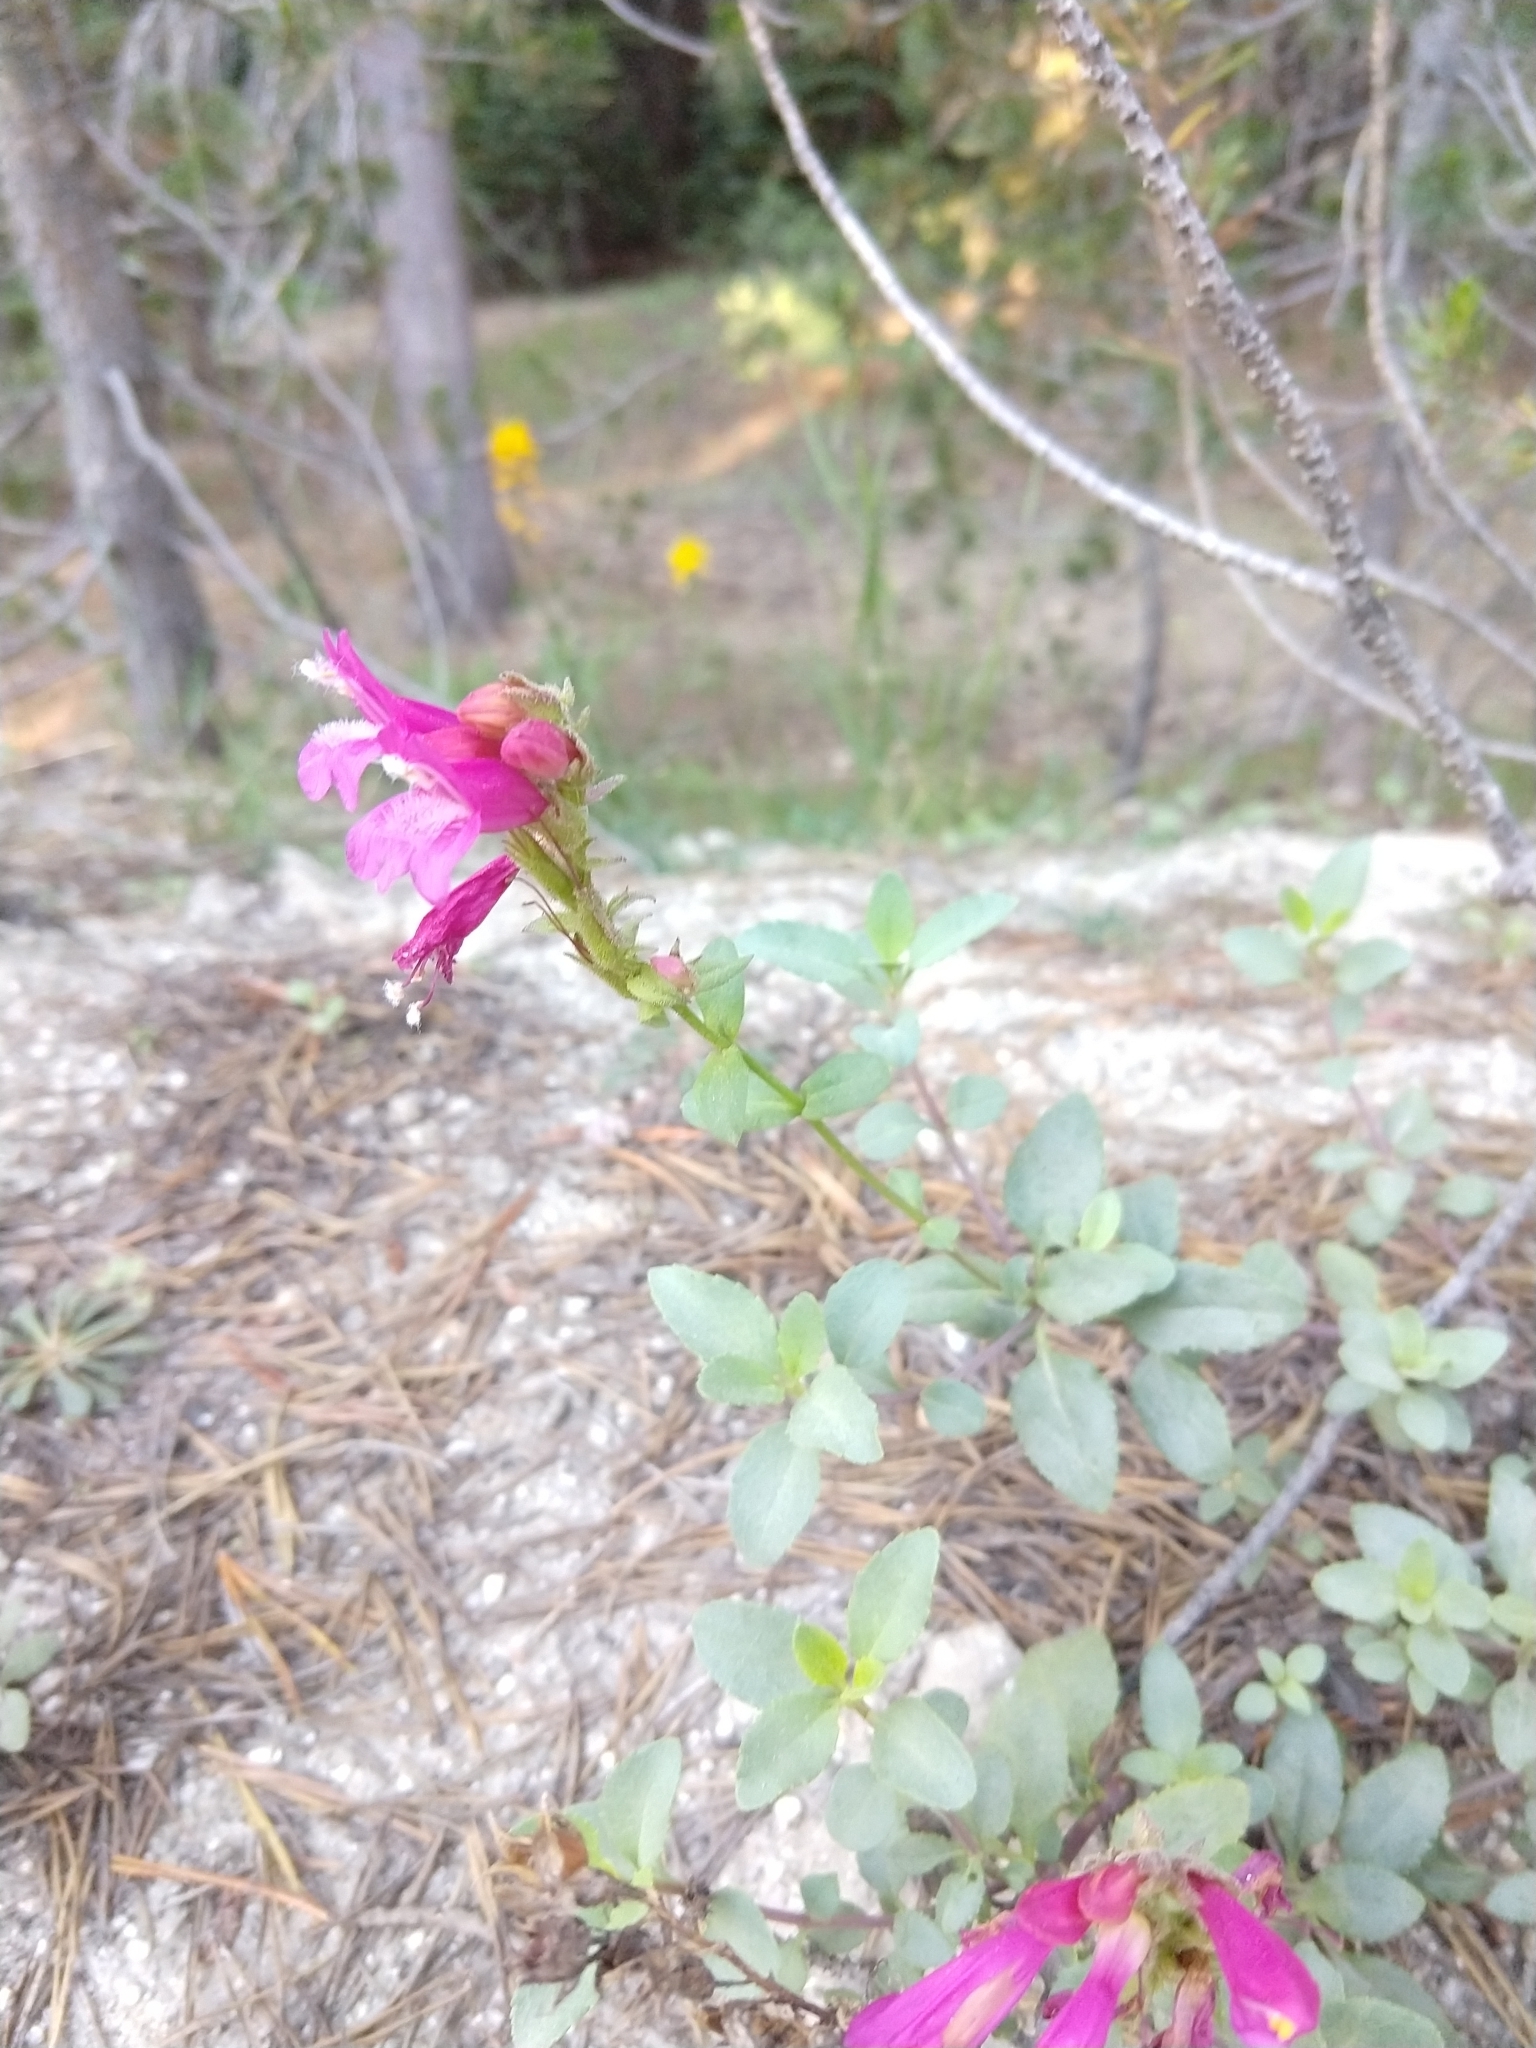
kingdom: Plantae
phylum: Tracheophyta
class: Magnoliopsida
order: Lamiales
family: Plantaginaceae
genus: Penstemon
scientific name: Penstemon newberryi
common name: Mountain-pride
